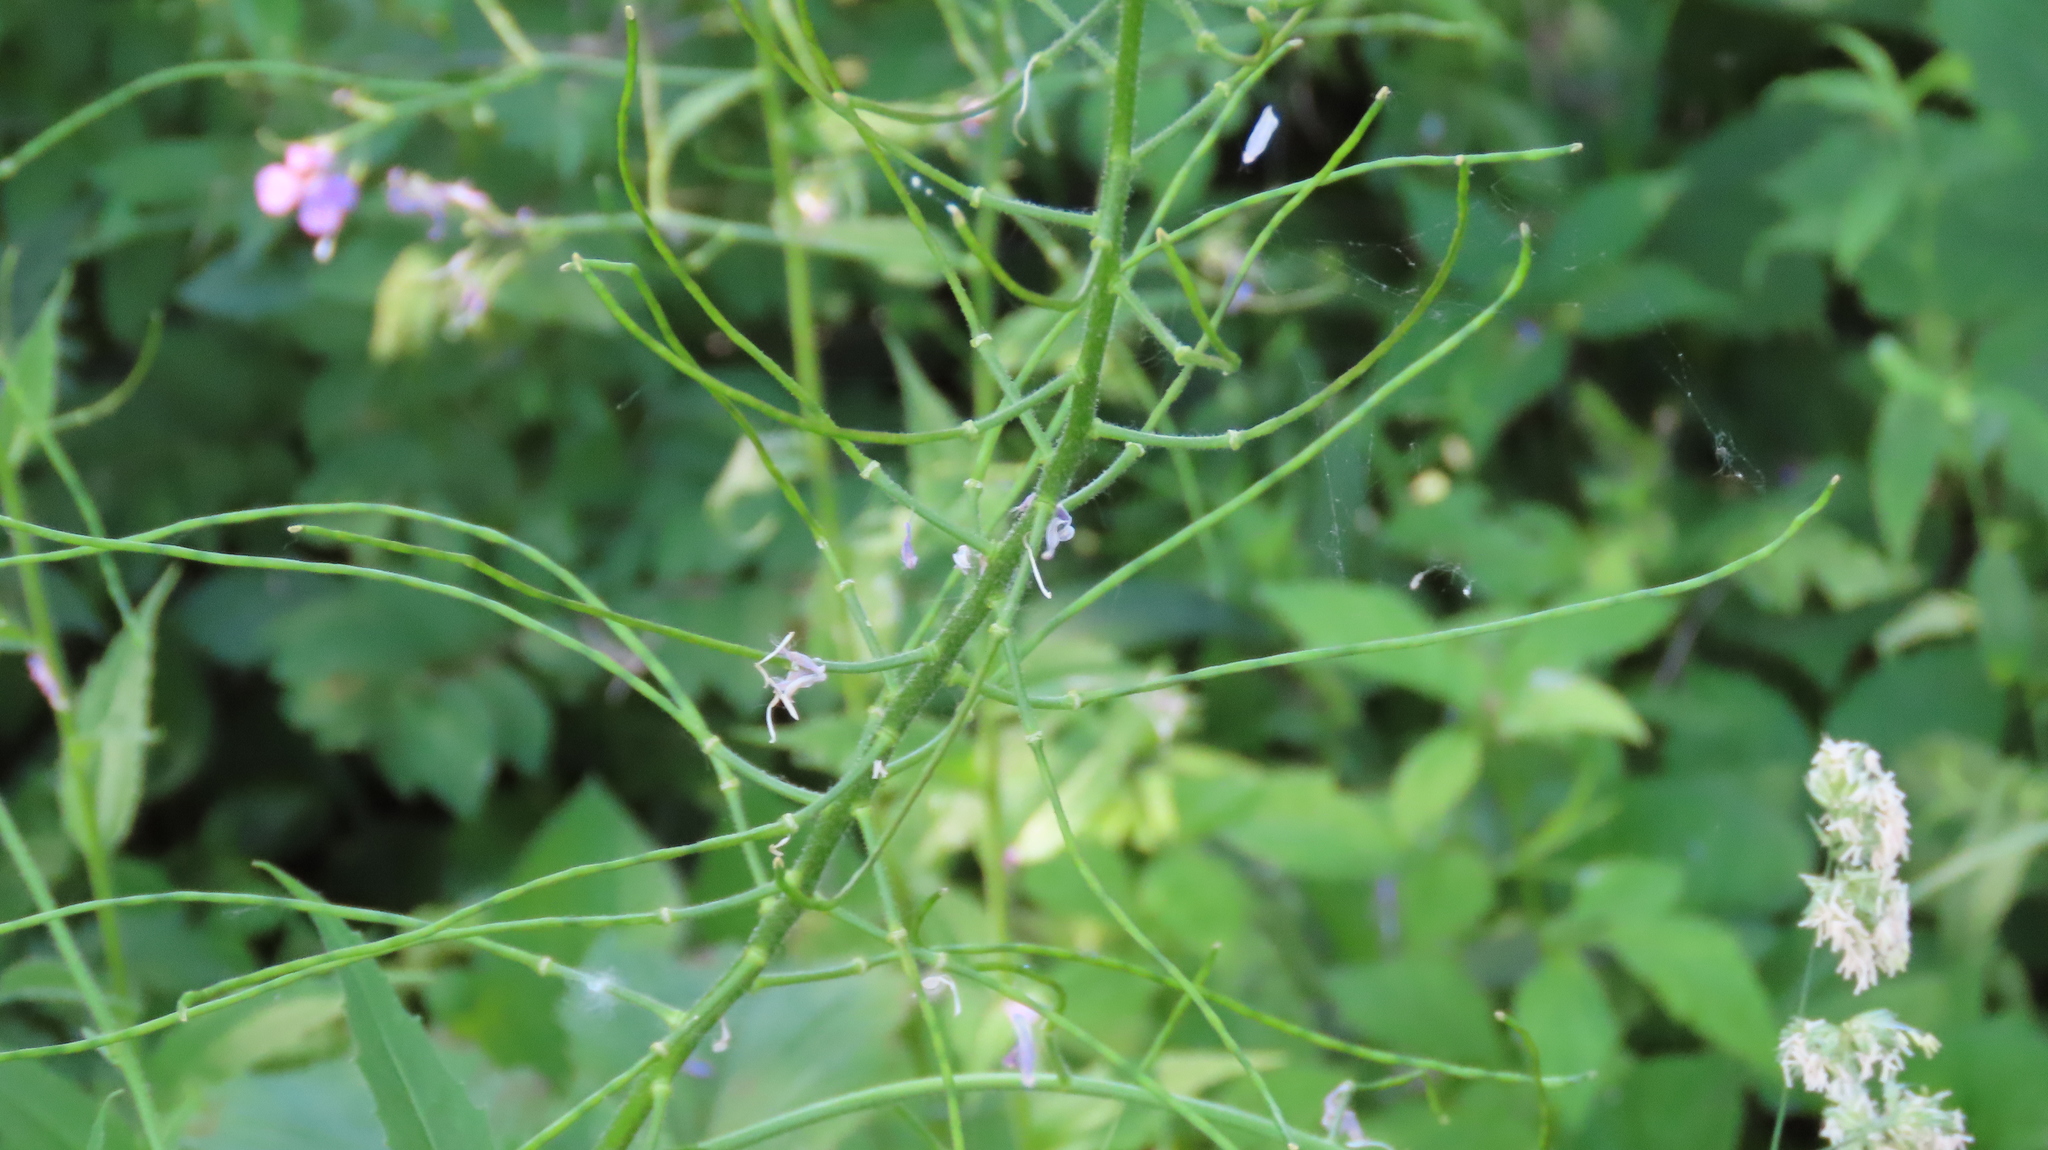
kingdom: Plantae
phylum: Tracheophyta
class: Magnoliopsida
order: Brassicales
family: Brassicaceae
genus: Hesperis
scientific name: Hesperis matronalis
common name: Dame's-violet
